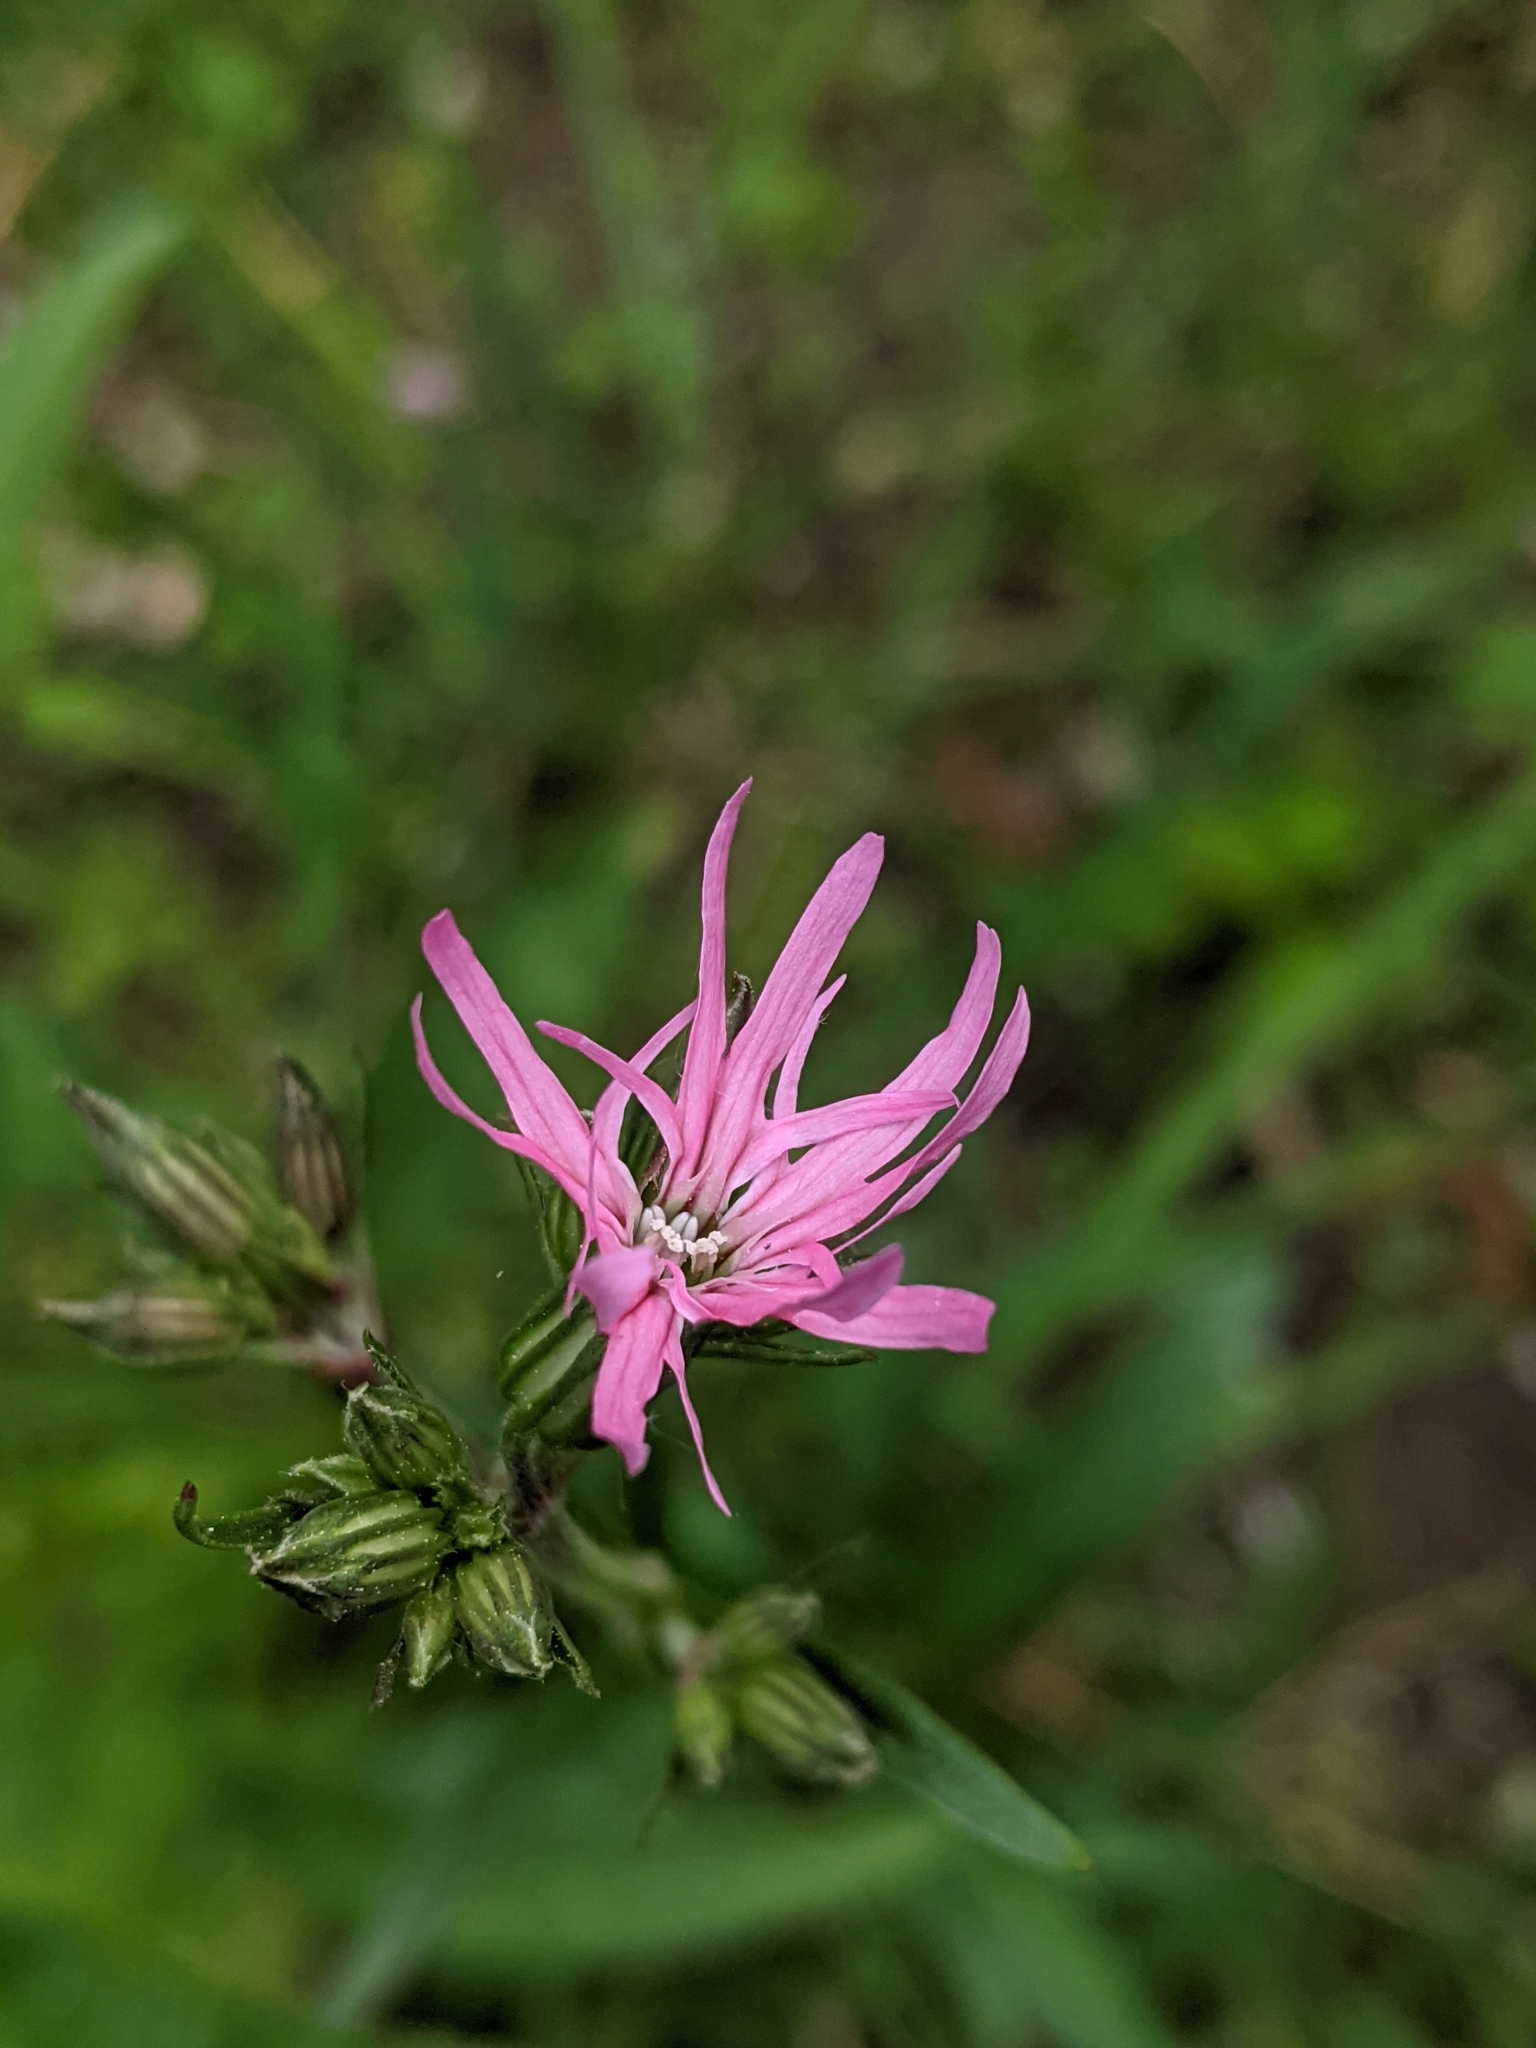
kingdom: Plantae
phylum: Tracheophyta
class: Magnoliopsida
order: Caryophyllales
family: Caryophyllaceae
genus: Silene
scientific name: Silene flos-cuculi
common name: Ragged-robin
